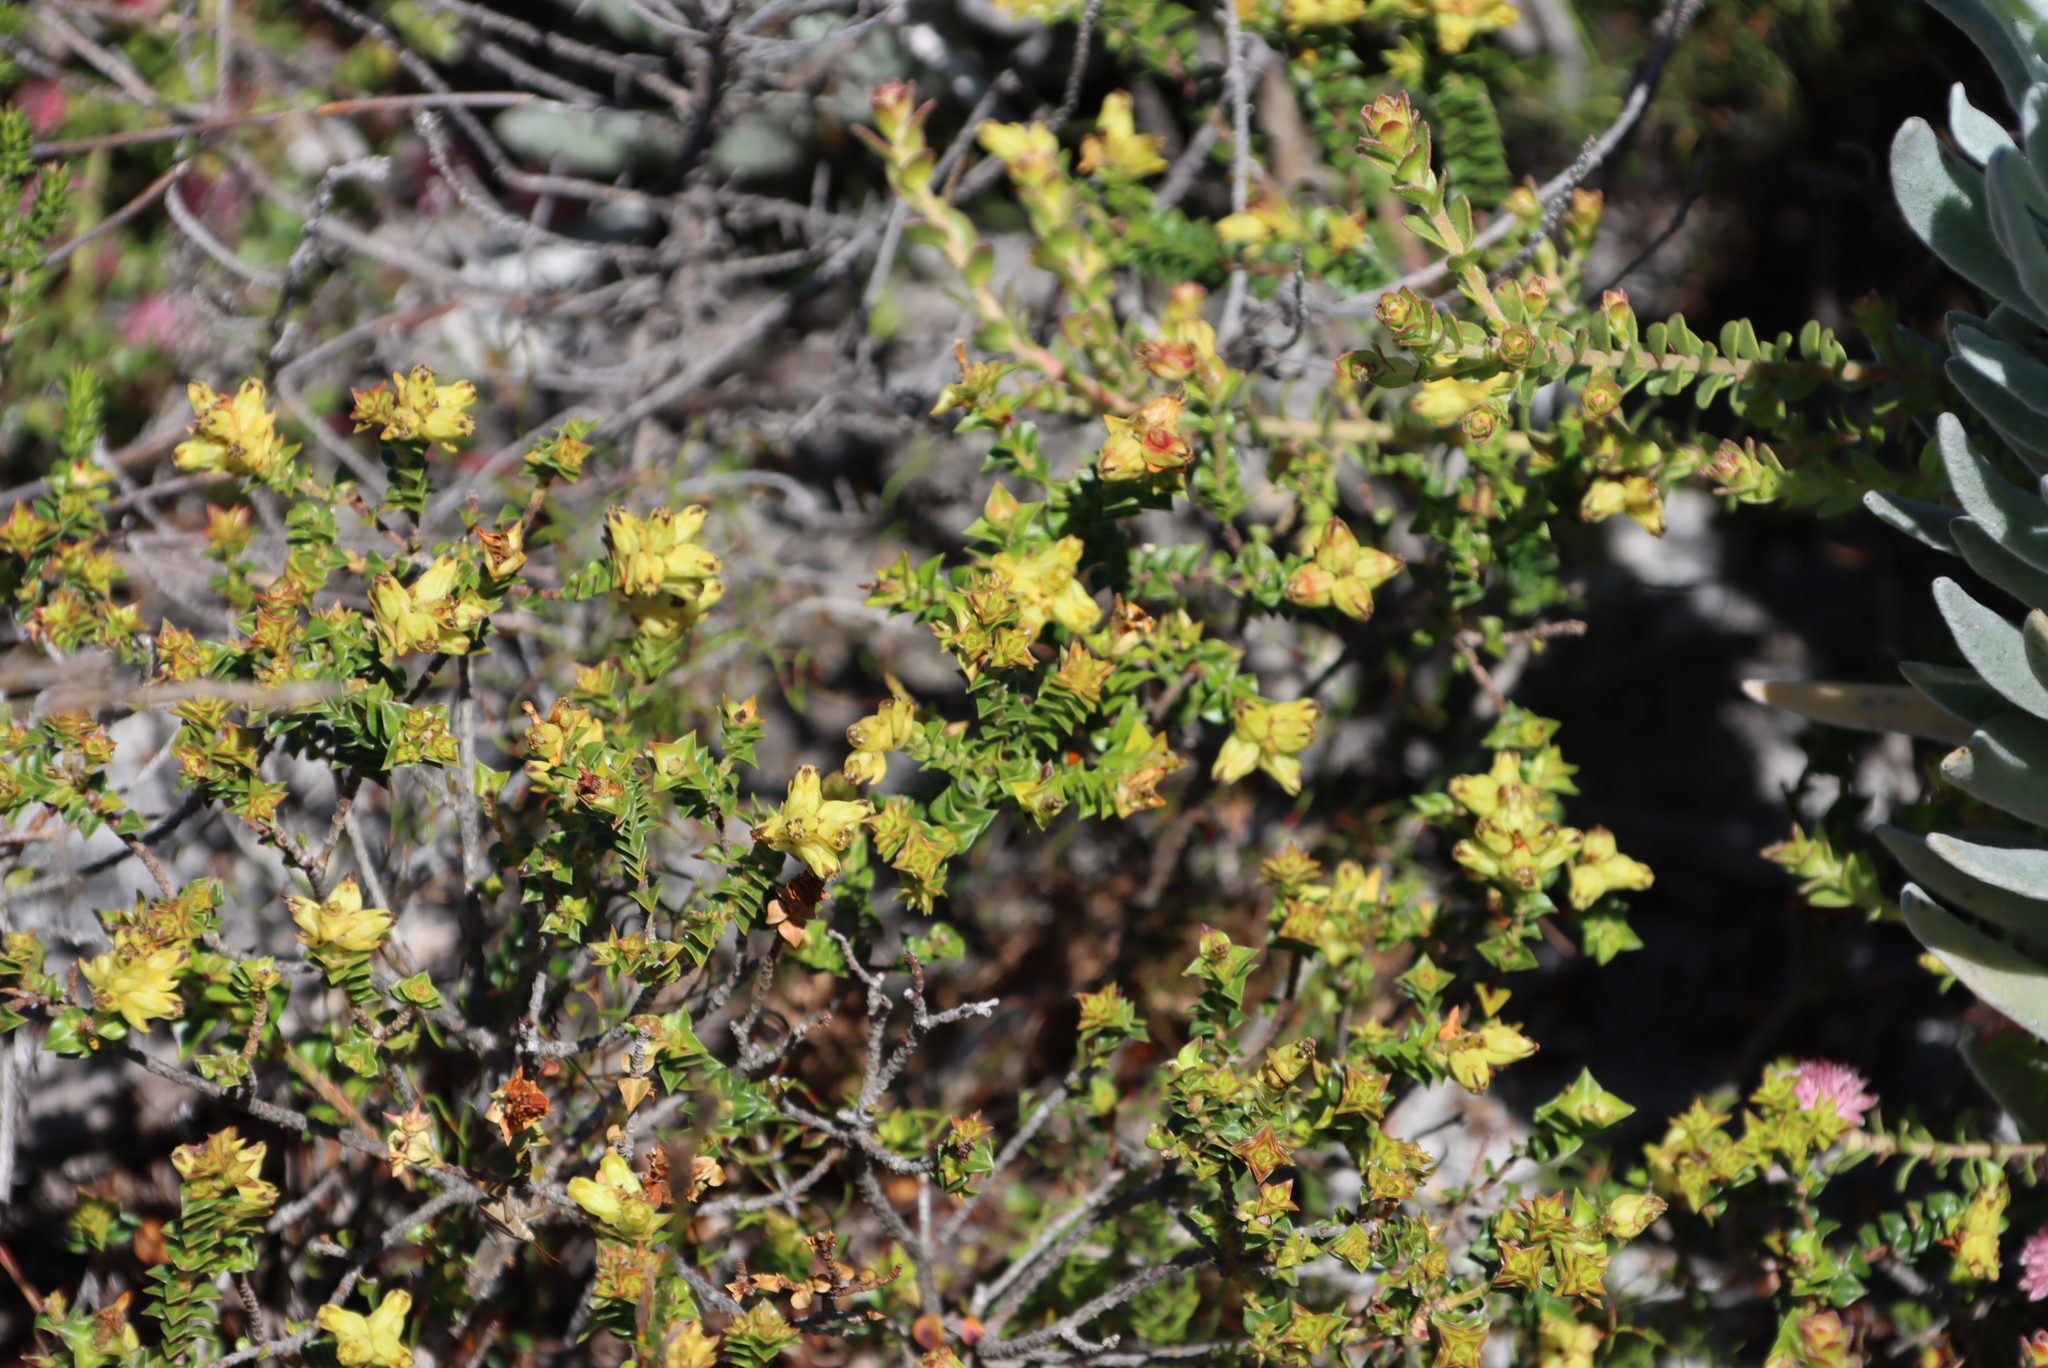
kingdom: Plantae
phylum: Tracheophyta
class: Magnoliopsida
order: Myrtales
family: Penaeaceae
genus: Penaea
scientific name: Penaea mucronata
